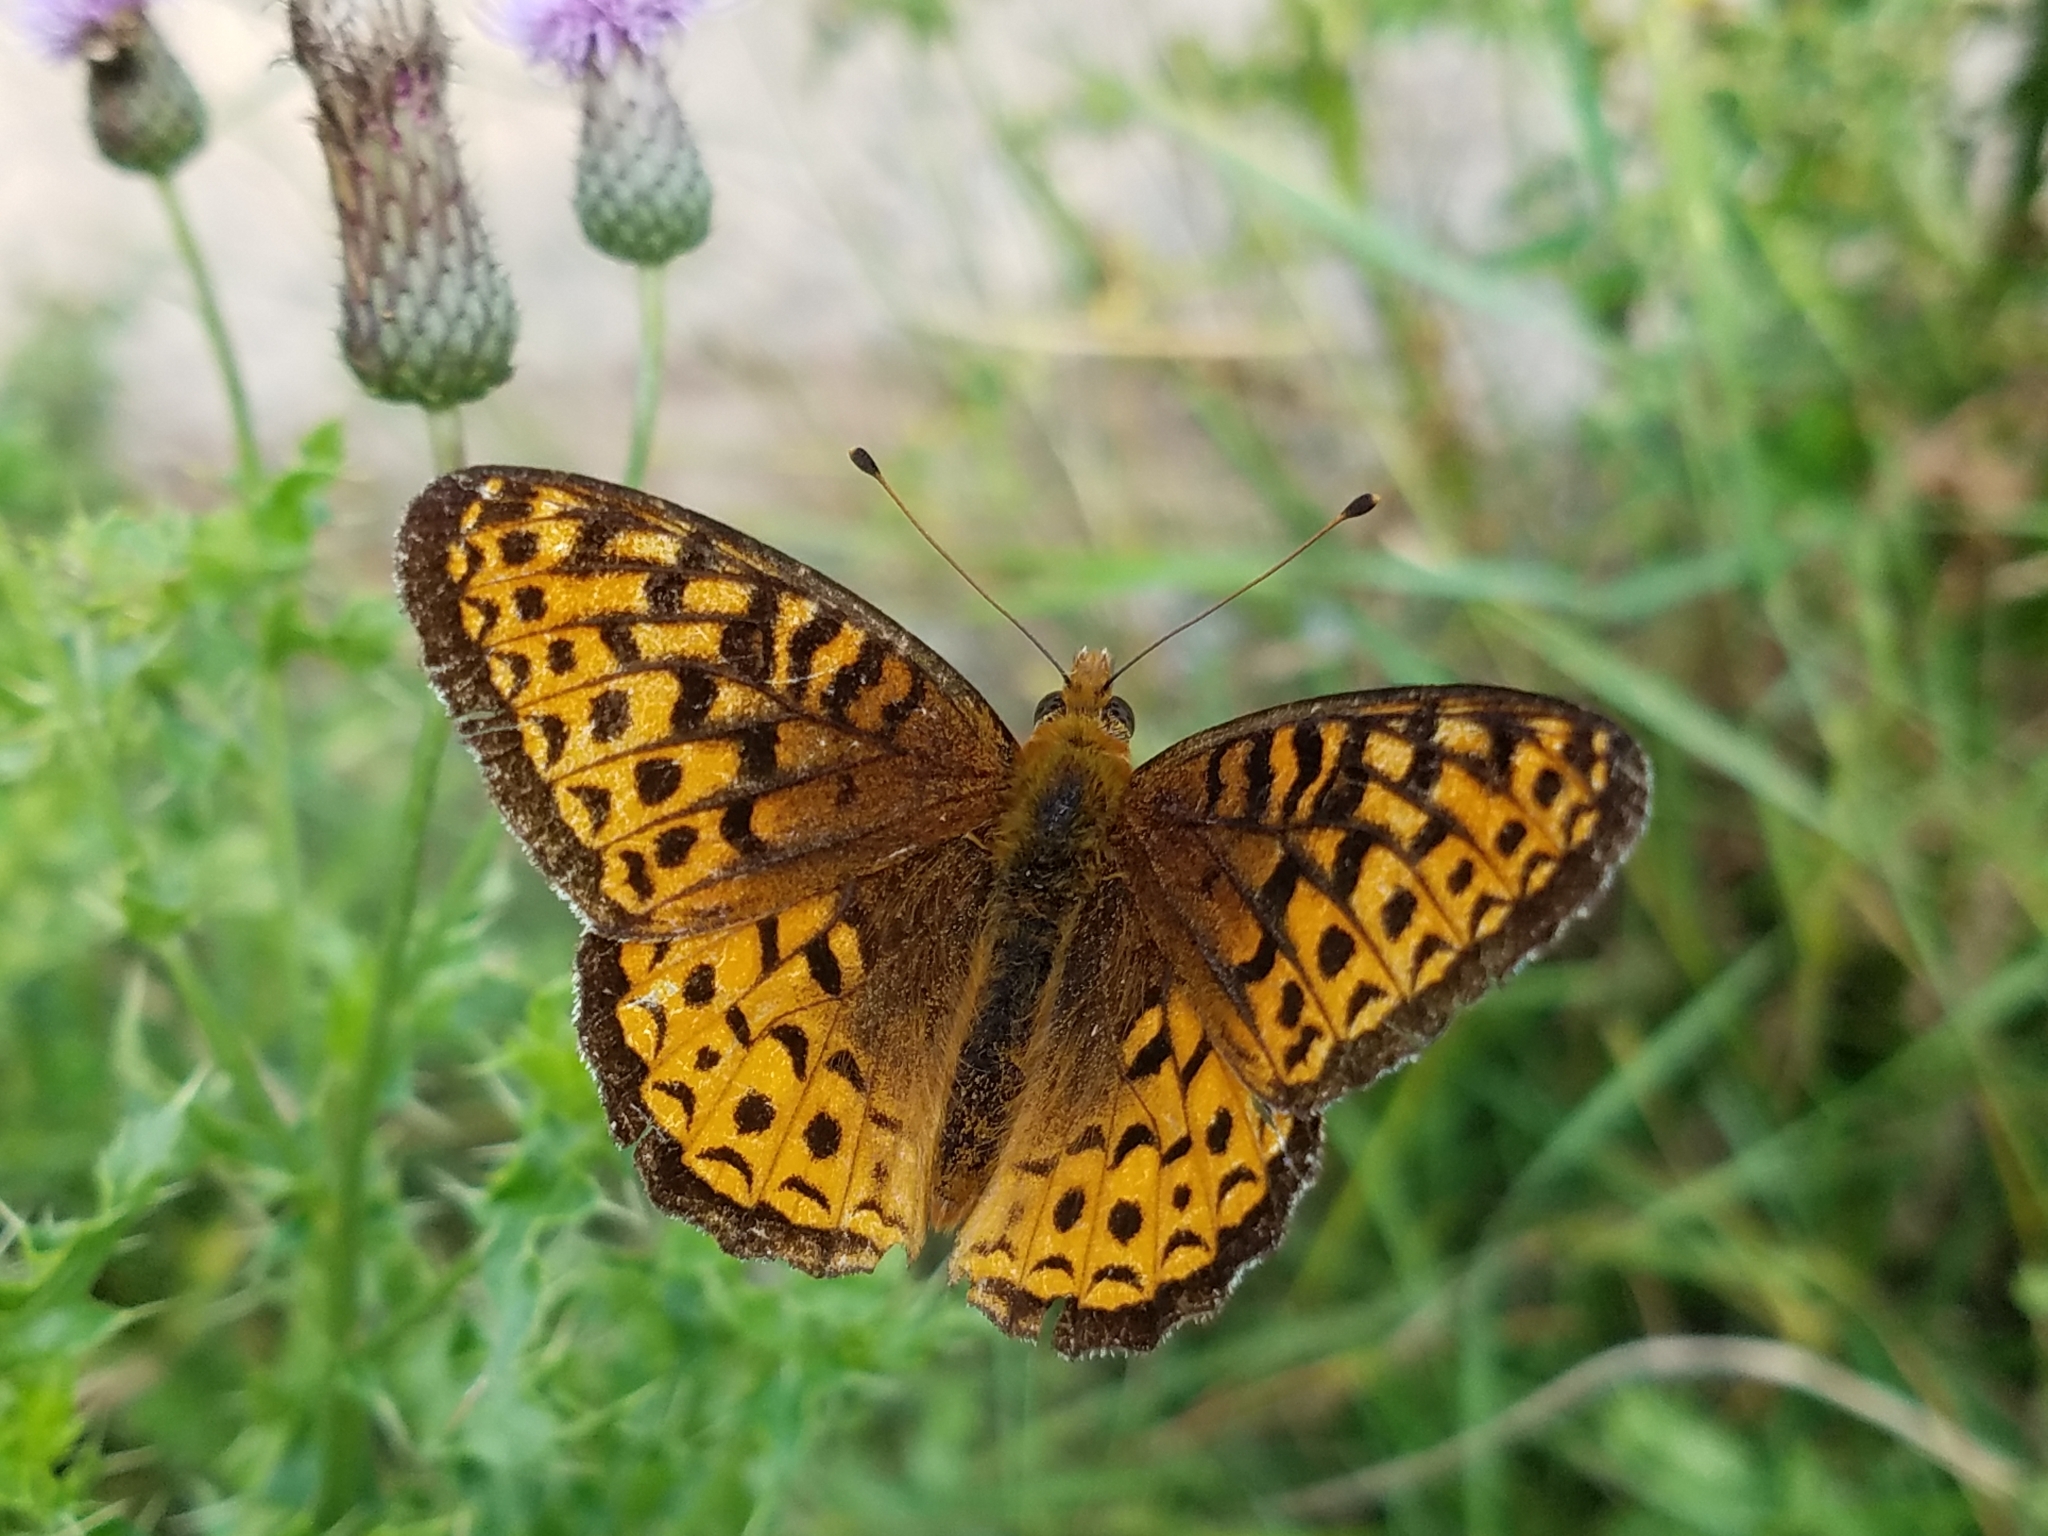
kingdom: Animalia
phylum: Arthropoda
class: Insecta
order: Lepidoptera
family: Nymphalidae
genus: Speyeria
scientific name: Speyeria atlantis
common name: Atlantis fritillary
